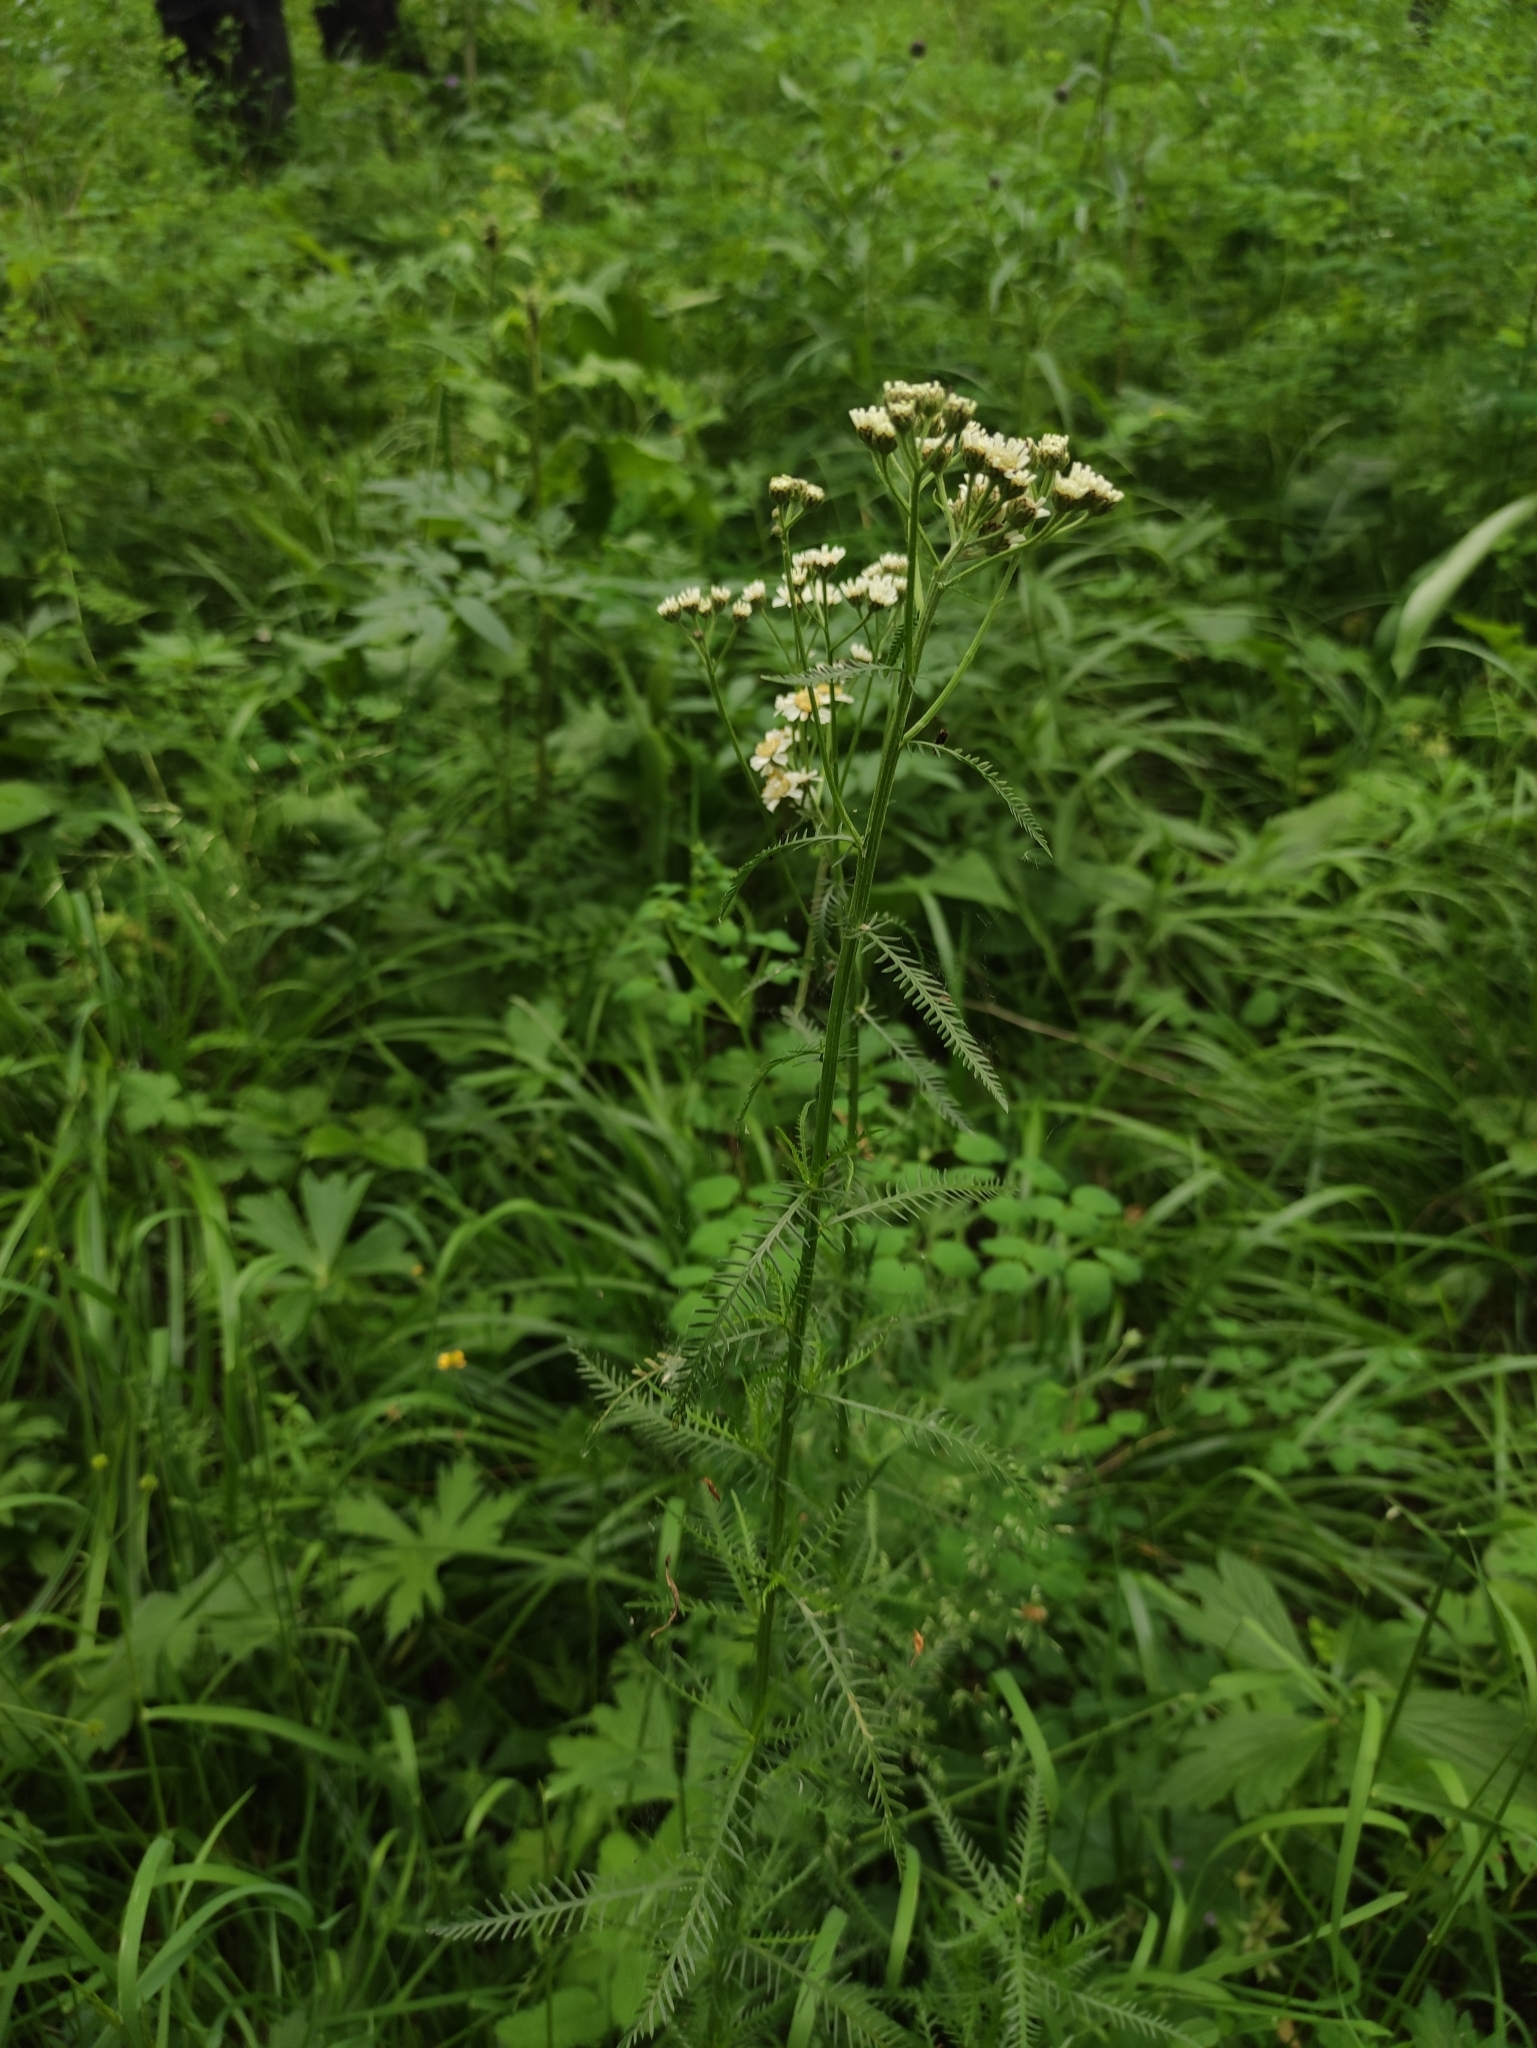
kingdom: Plantae
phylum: Tracheophyta
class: Magnoliopsida
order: Asterales
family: Asteraceae
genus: Achillea
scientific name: Achillea impatiens
